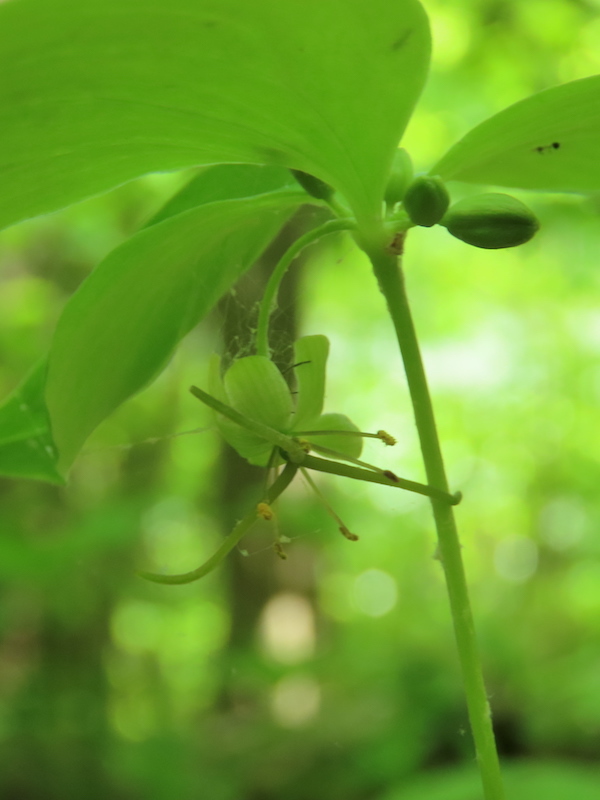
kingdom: Plantae
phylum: Tracheophyta
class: Liliopsida
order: Liliales
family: Liliaceae
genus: Medeola
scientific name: Medeola virginiana
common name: Indian cucumber-root
